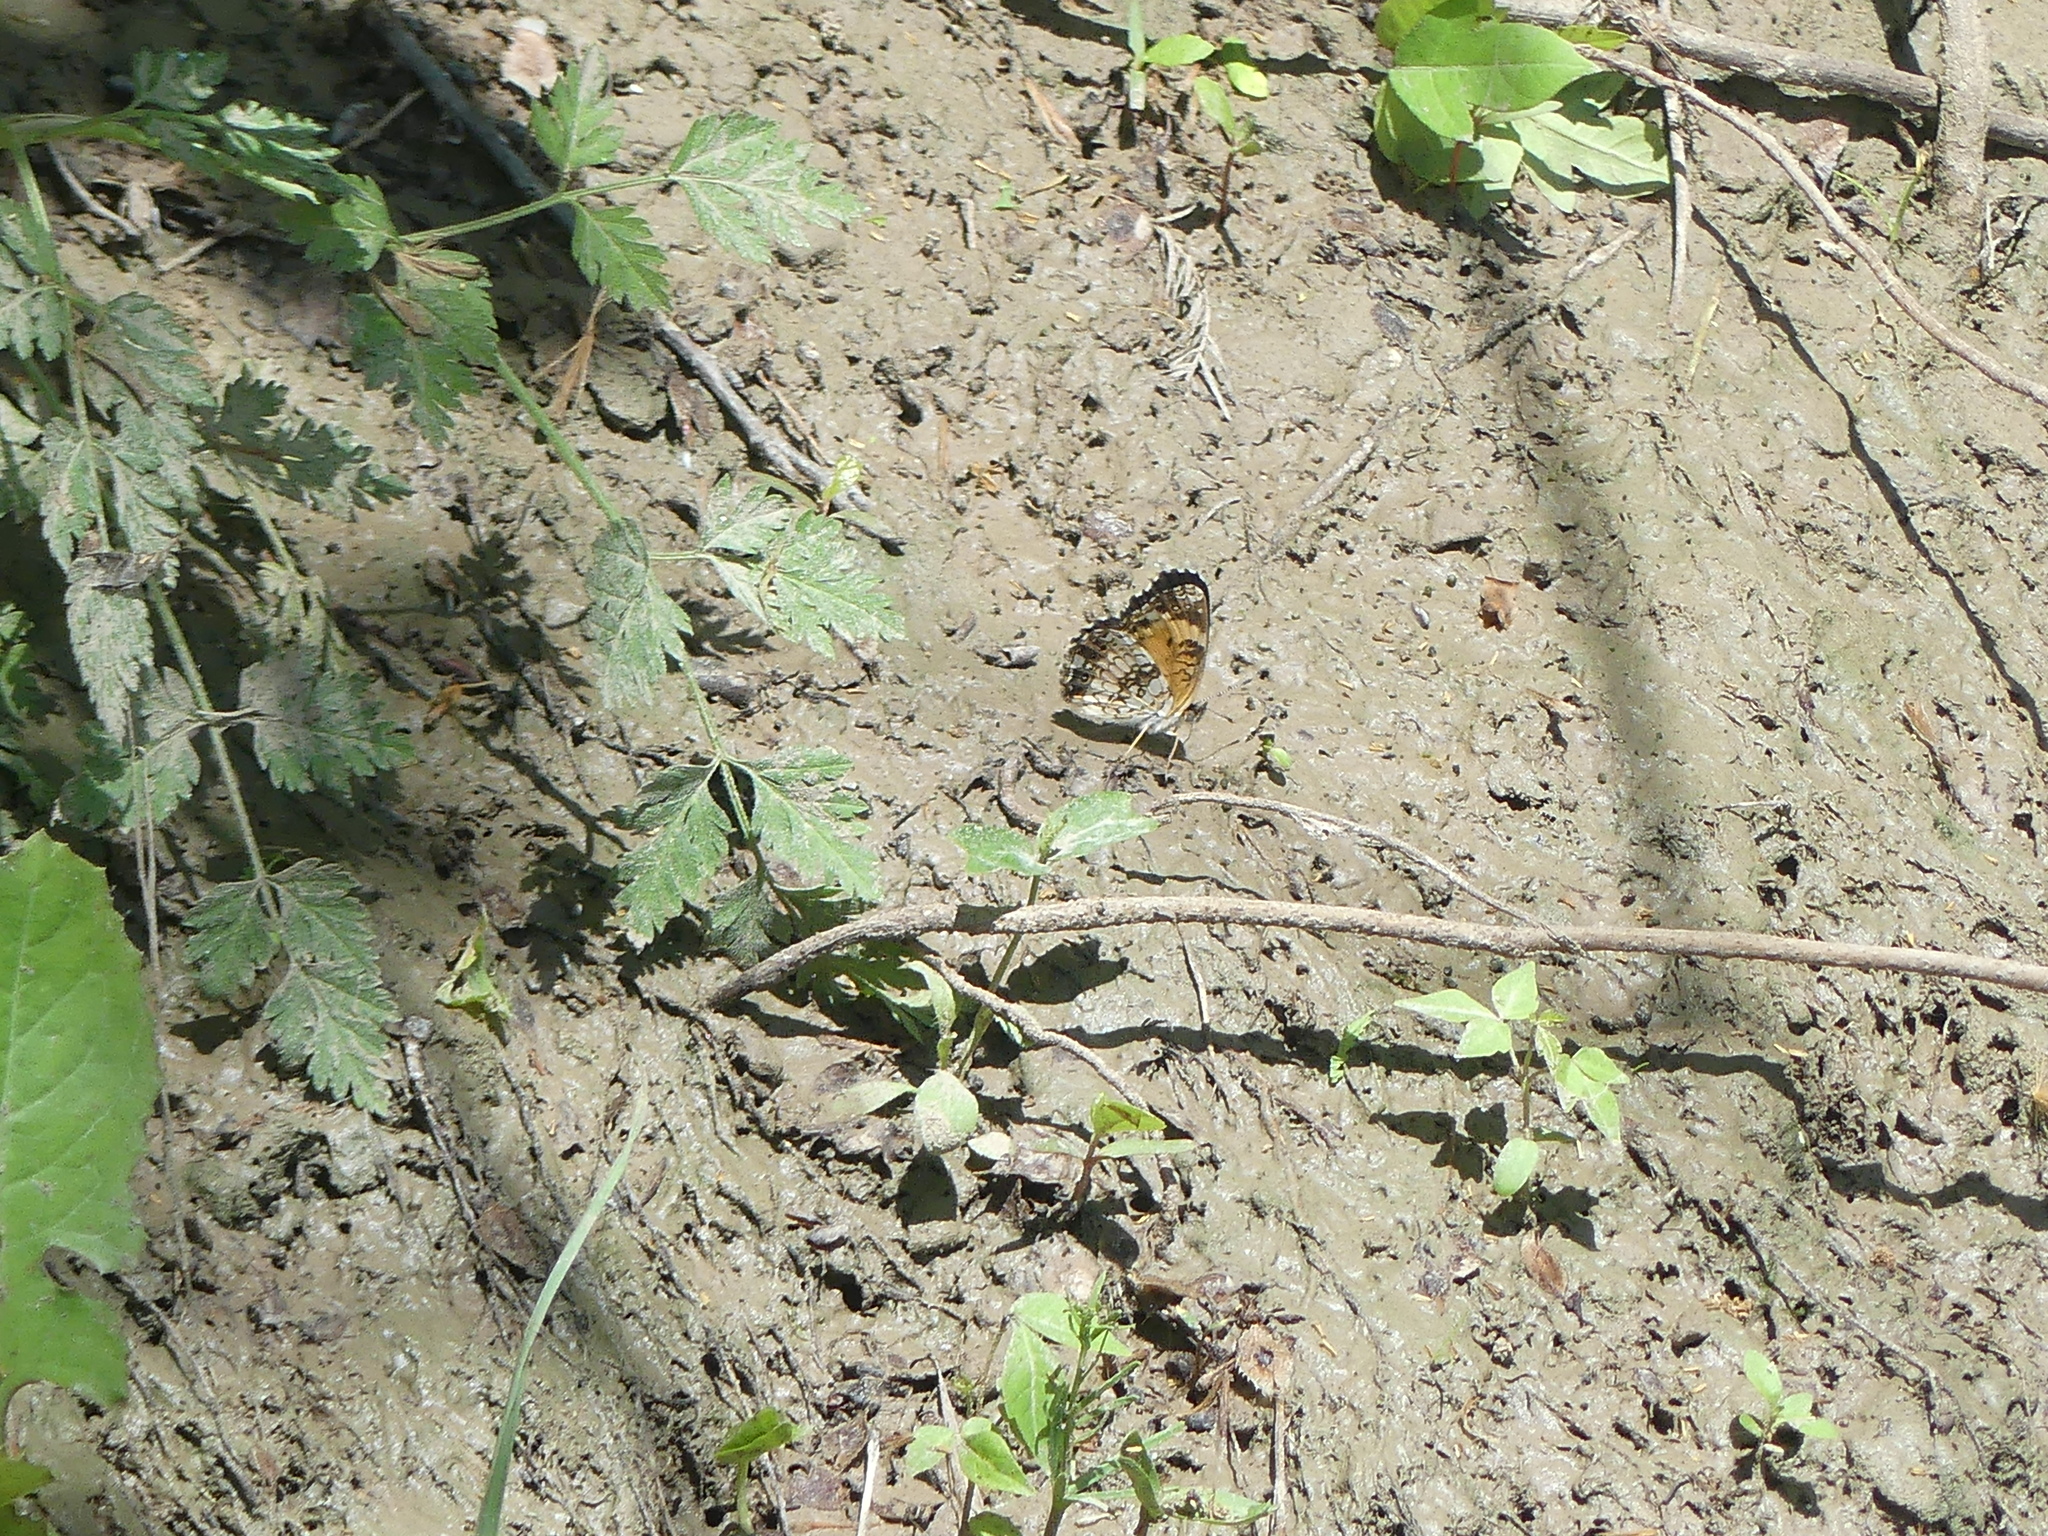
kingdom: Animalia
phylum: Arthropoda
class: Insecta
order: Lepidoptera
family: Nymphalidae
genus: Chlosyne
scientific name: Chlosyne nycteis
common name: Silvery checkerspot
